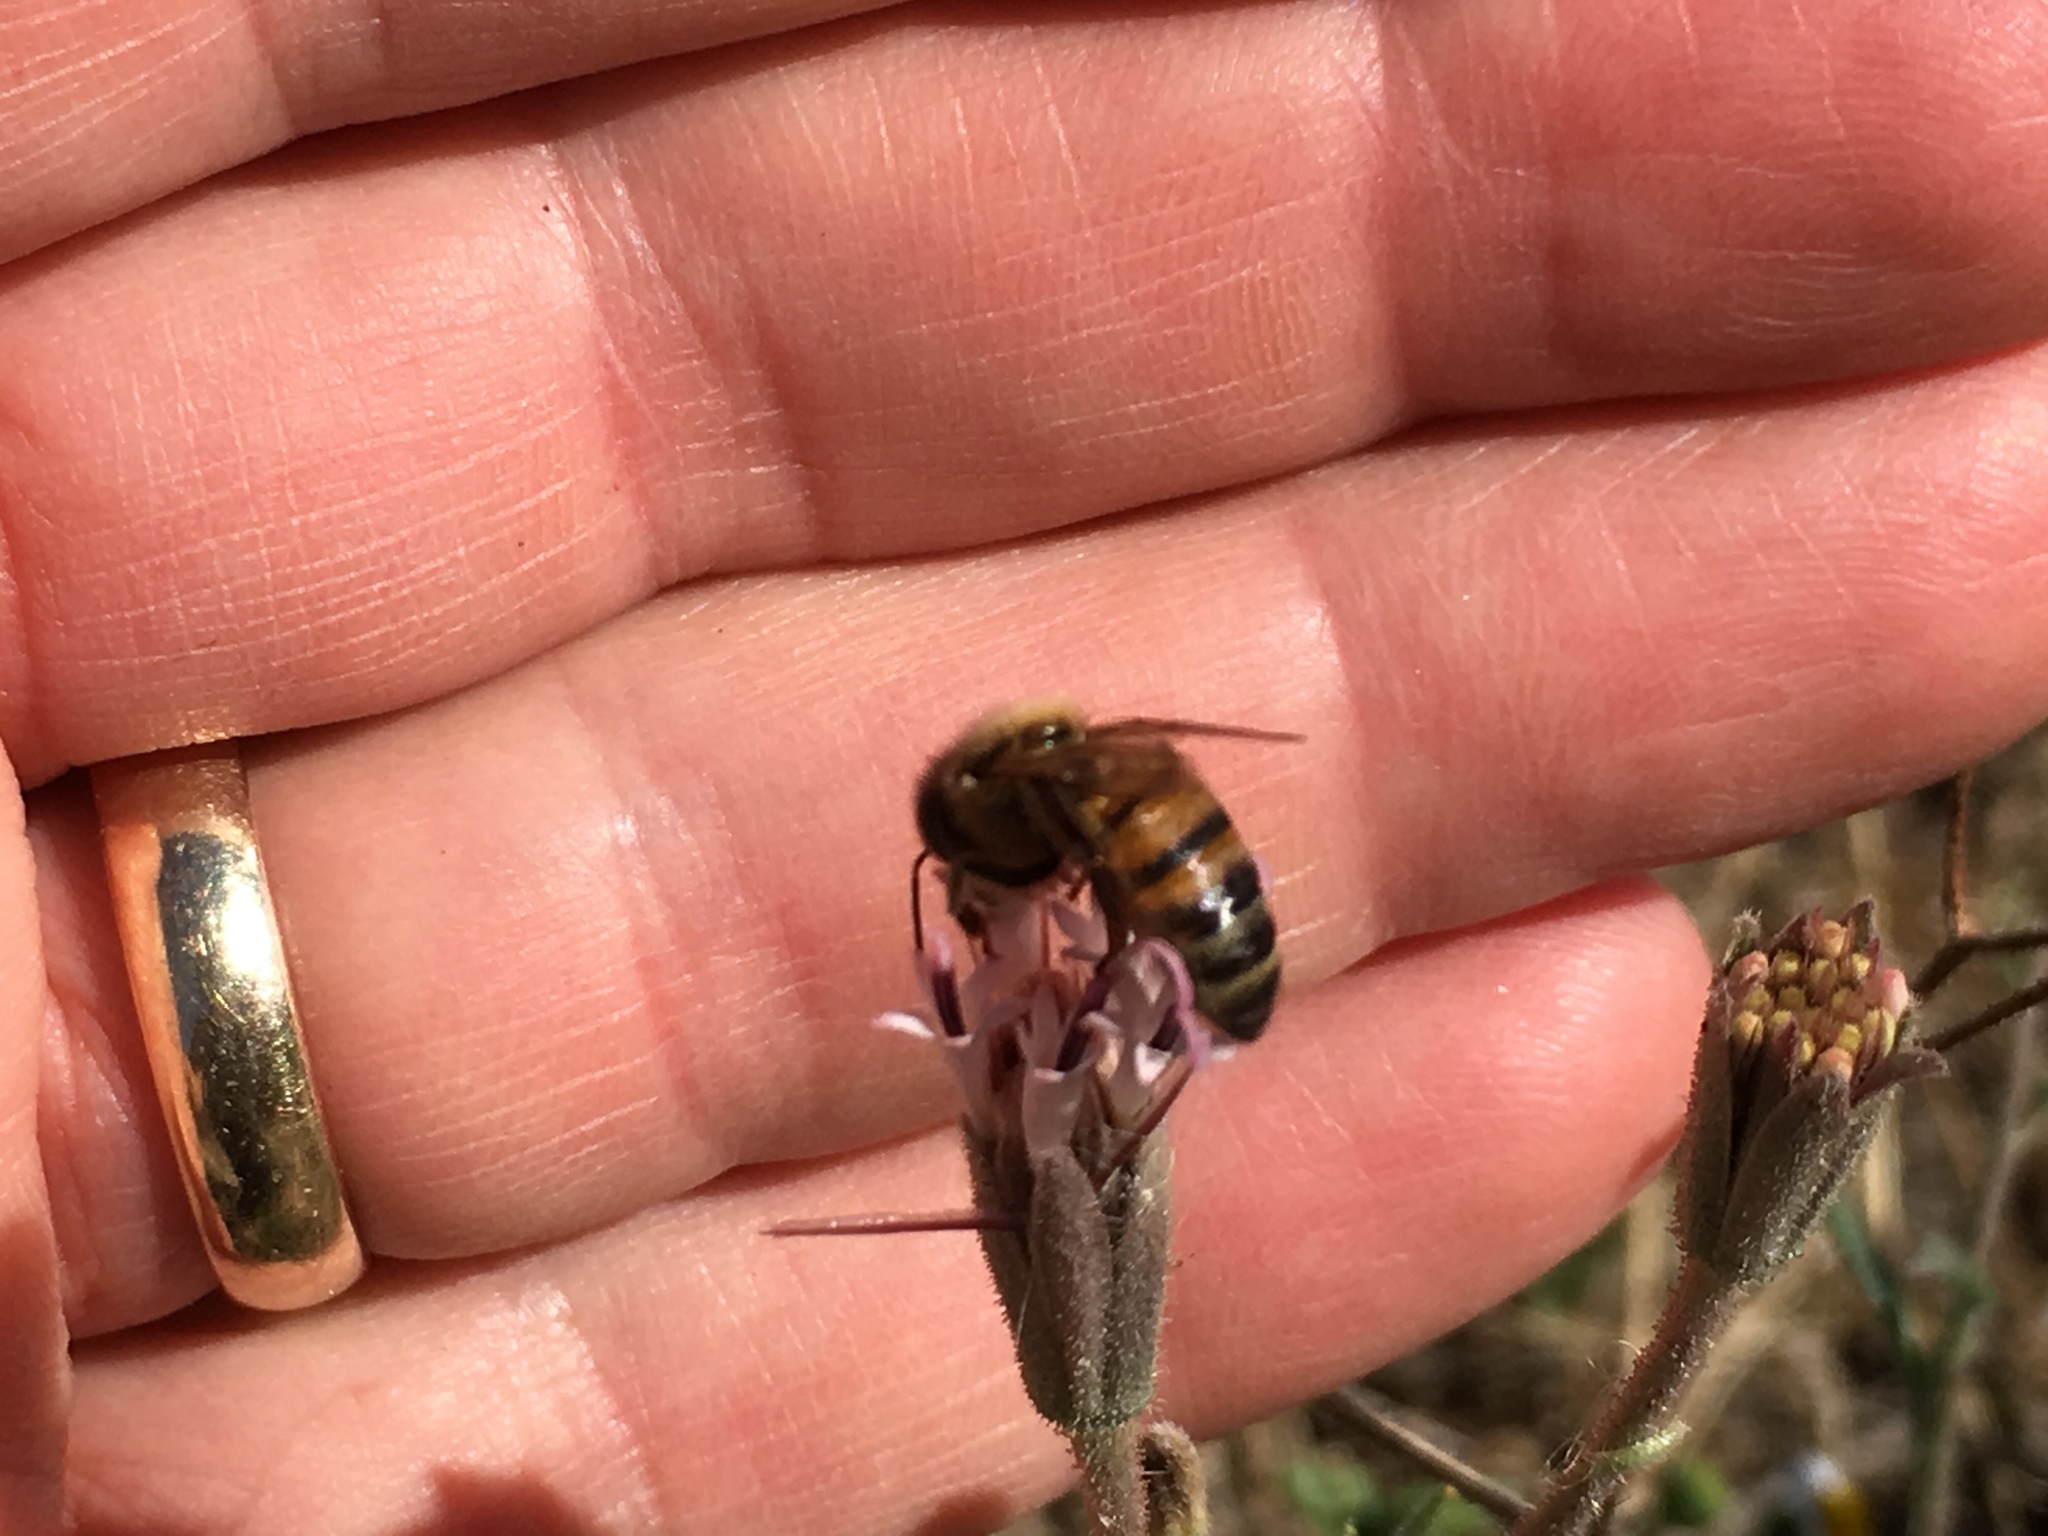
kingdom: Animalia
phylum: Arthropoda
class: Insecta
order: Hymenoptera
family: Apidae
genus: Apis
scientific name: Apis mellifera
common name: Honey bee
